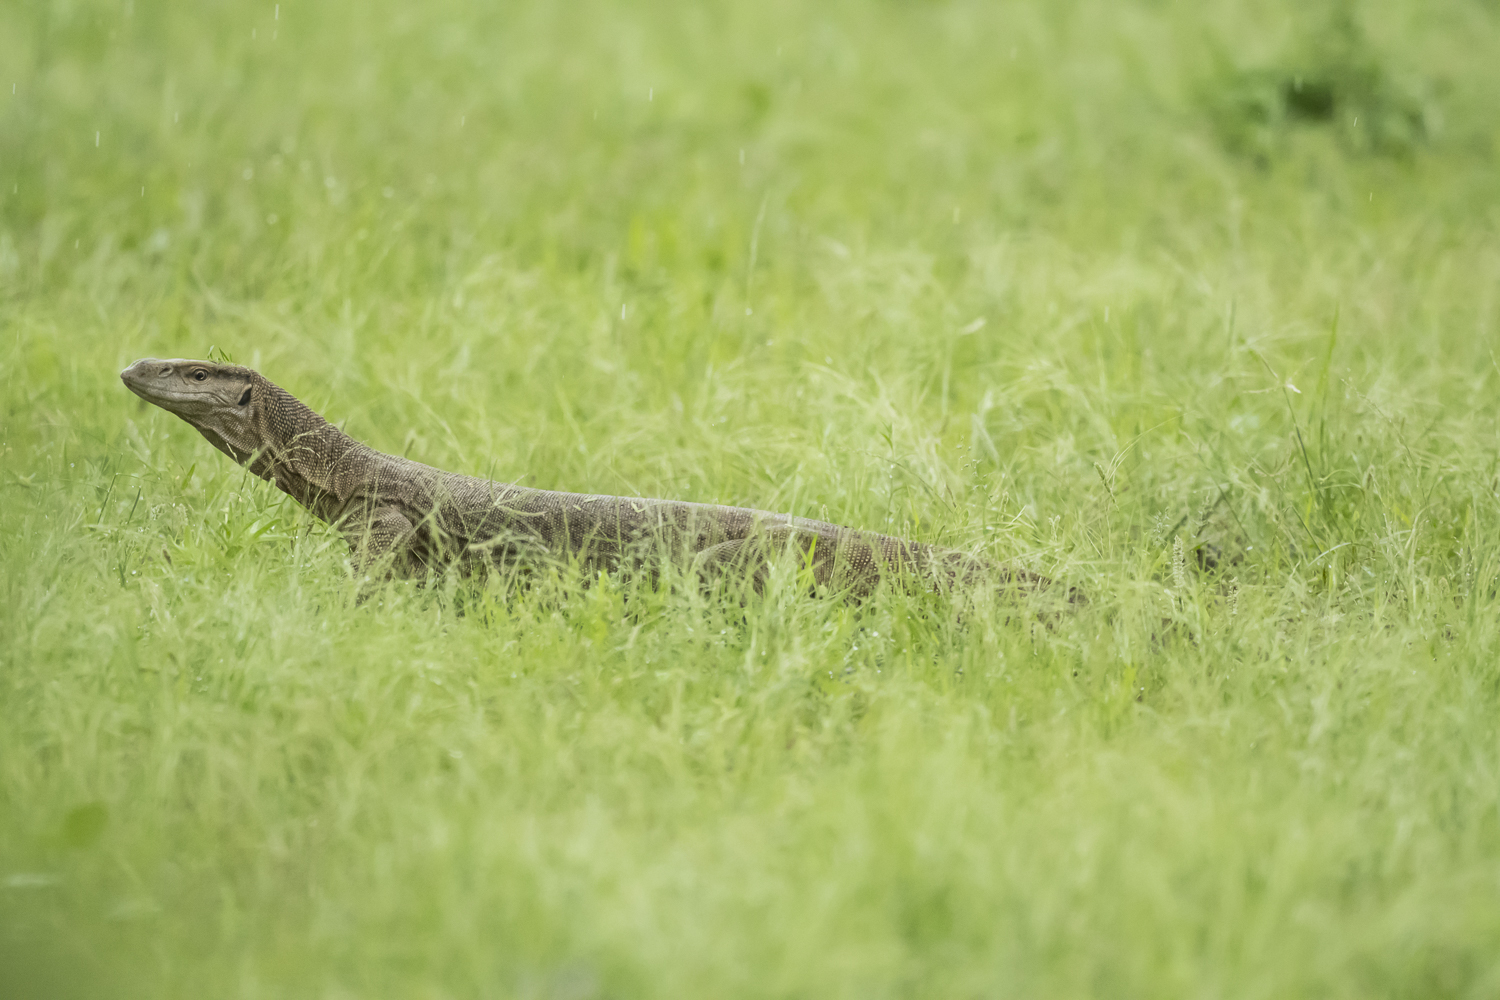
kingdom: Animalia
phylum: Chordata
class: Squamata
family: Varanidae
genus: Varanus
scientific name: Varanus bengalensis
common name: Bengal monitor
